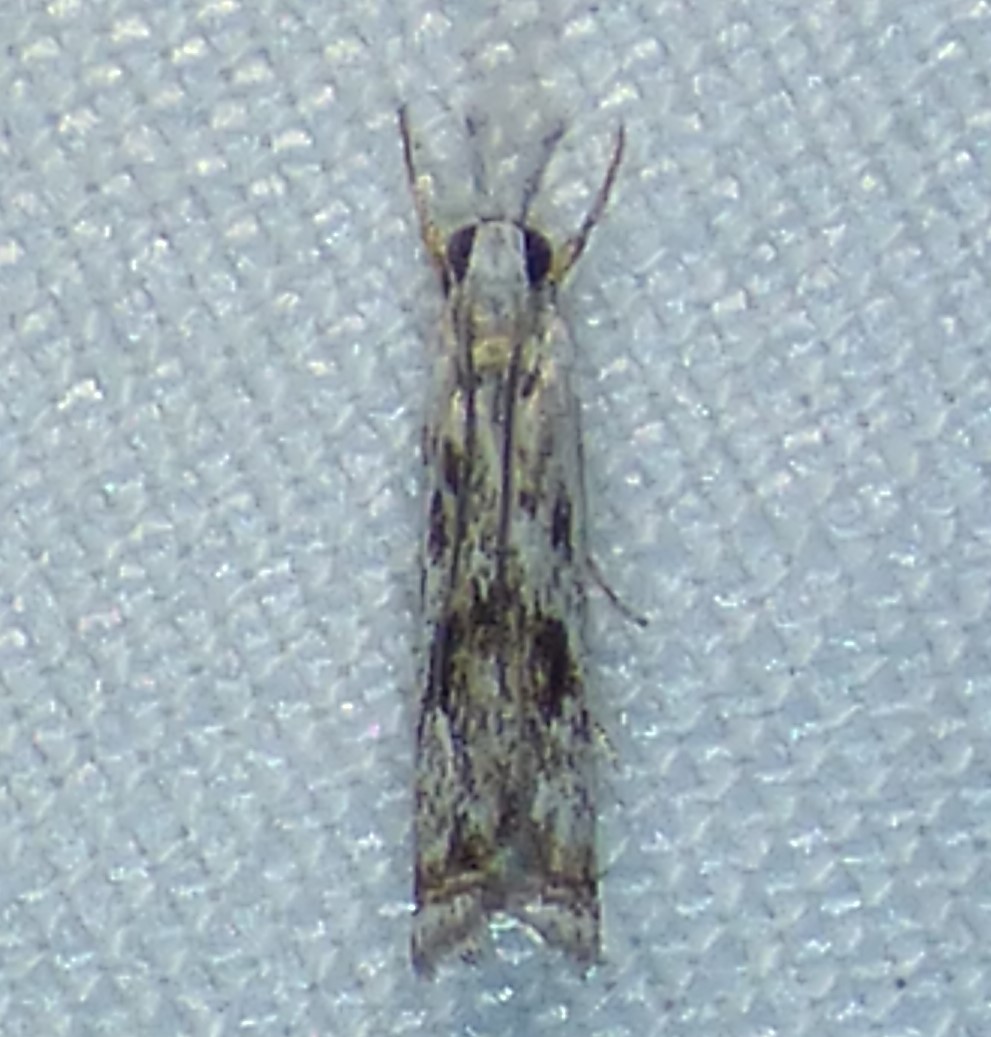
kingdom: Animalia
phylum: Arthropoda
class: Insecta
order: Lepidoptera
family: Crambidae
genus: Microcrambus
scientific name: Microcrambus immunellus
